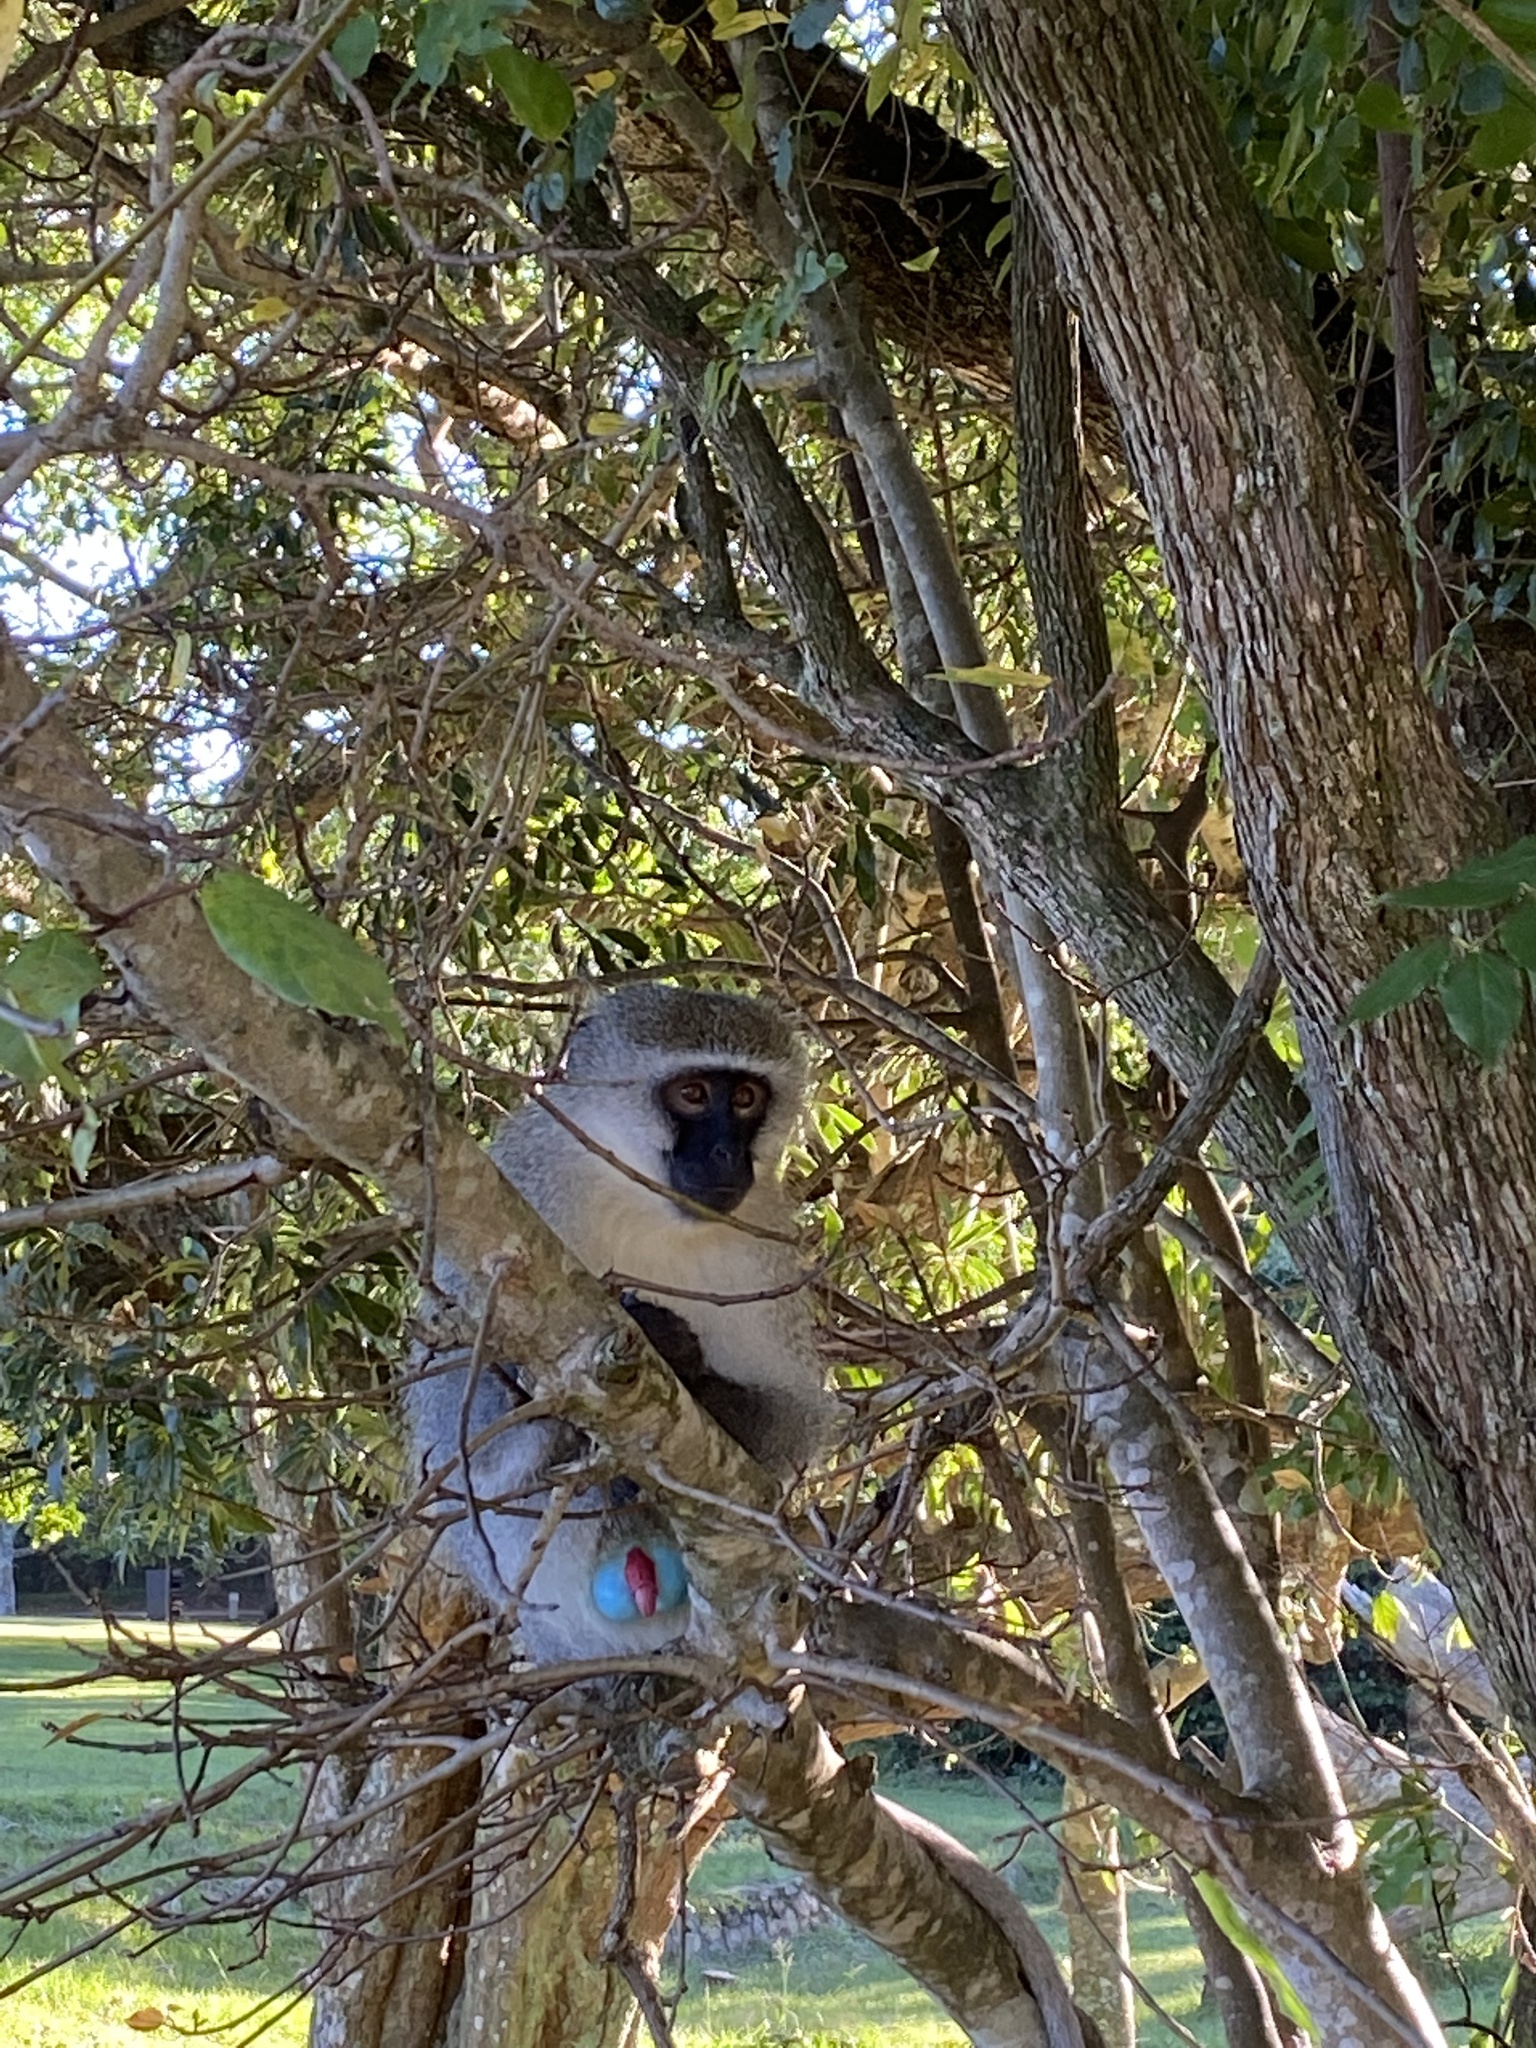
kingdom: Animalia
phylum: Chordata
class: Mammalia
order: Primates
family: Cercopithecidae
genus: Chlorocebus
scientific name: Chlorocebus pygerythrus
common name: Vervet monkey
